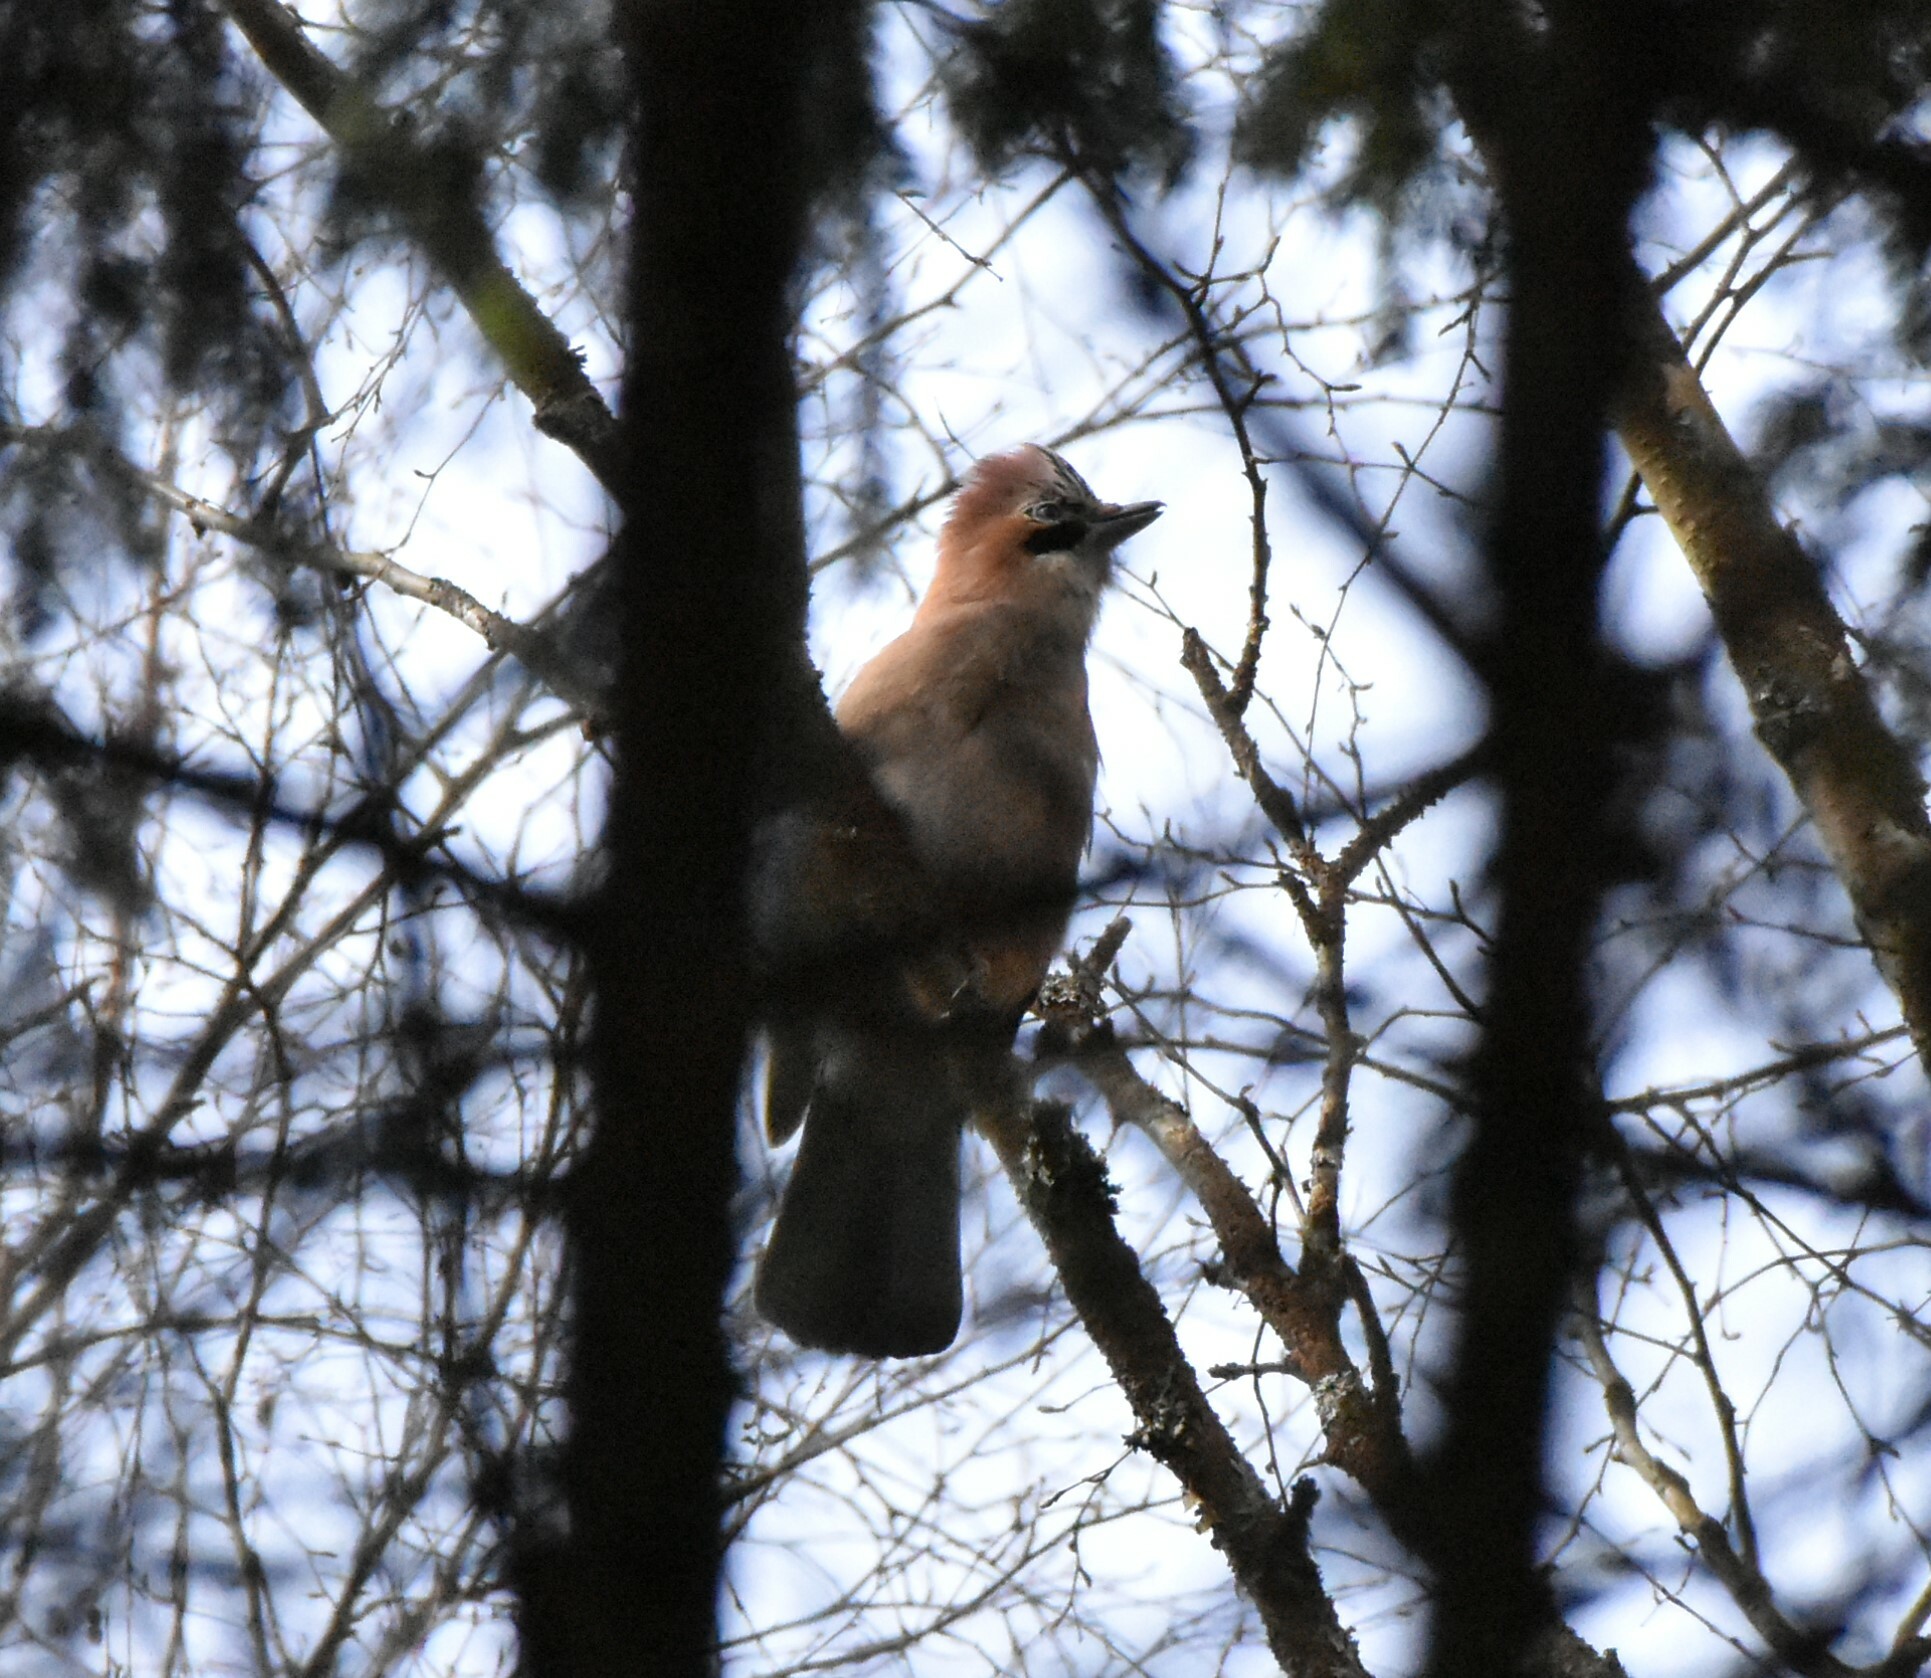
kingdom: Animalia
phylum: Chordata
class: Aves
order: Passeriformes
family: Corvidae
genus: Garrulus
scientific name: Garrulus glandarius
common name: Eurasian jay
